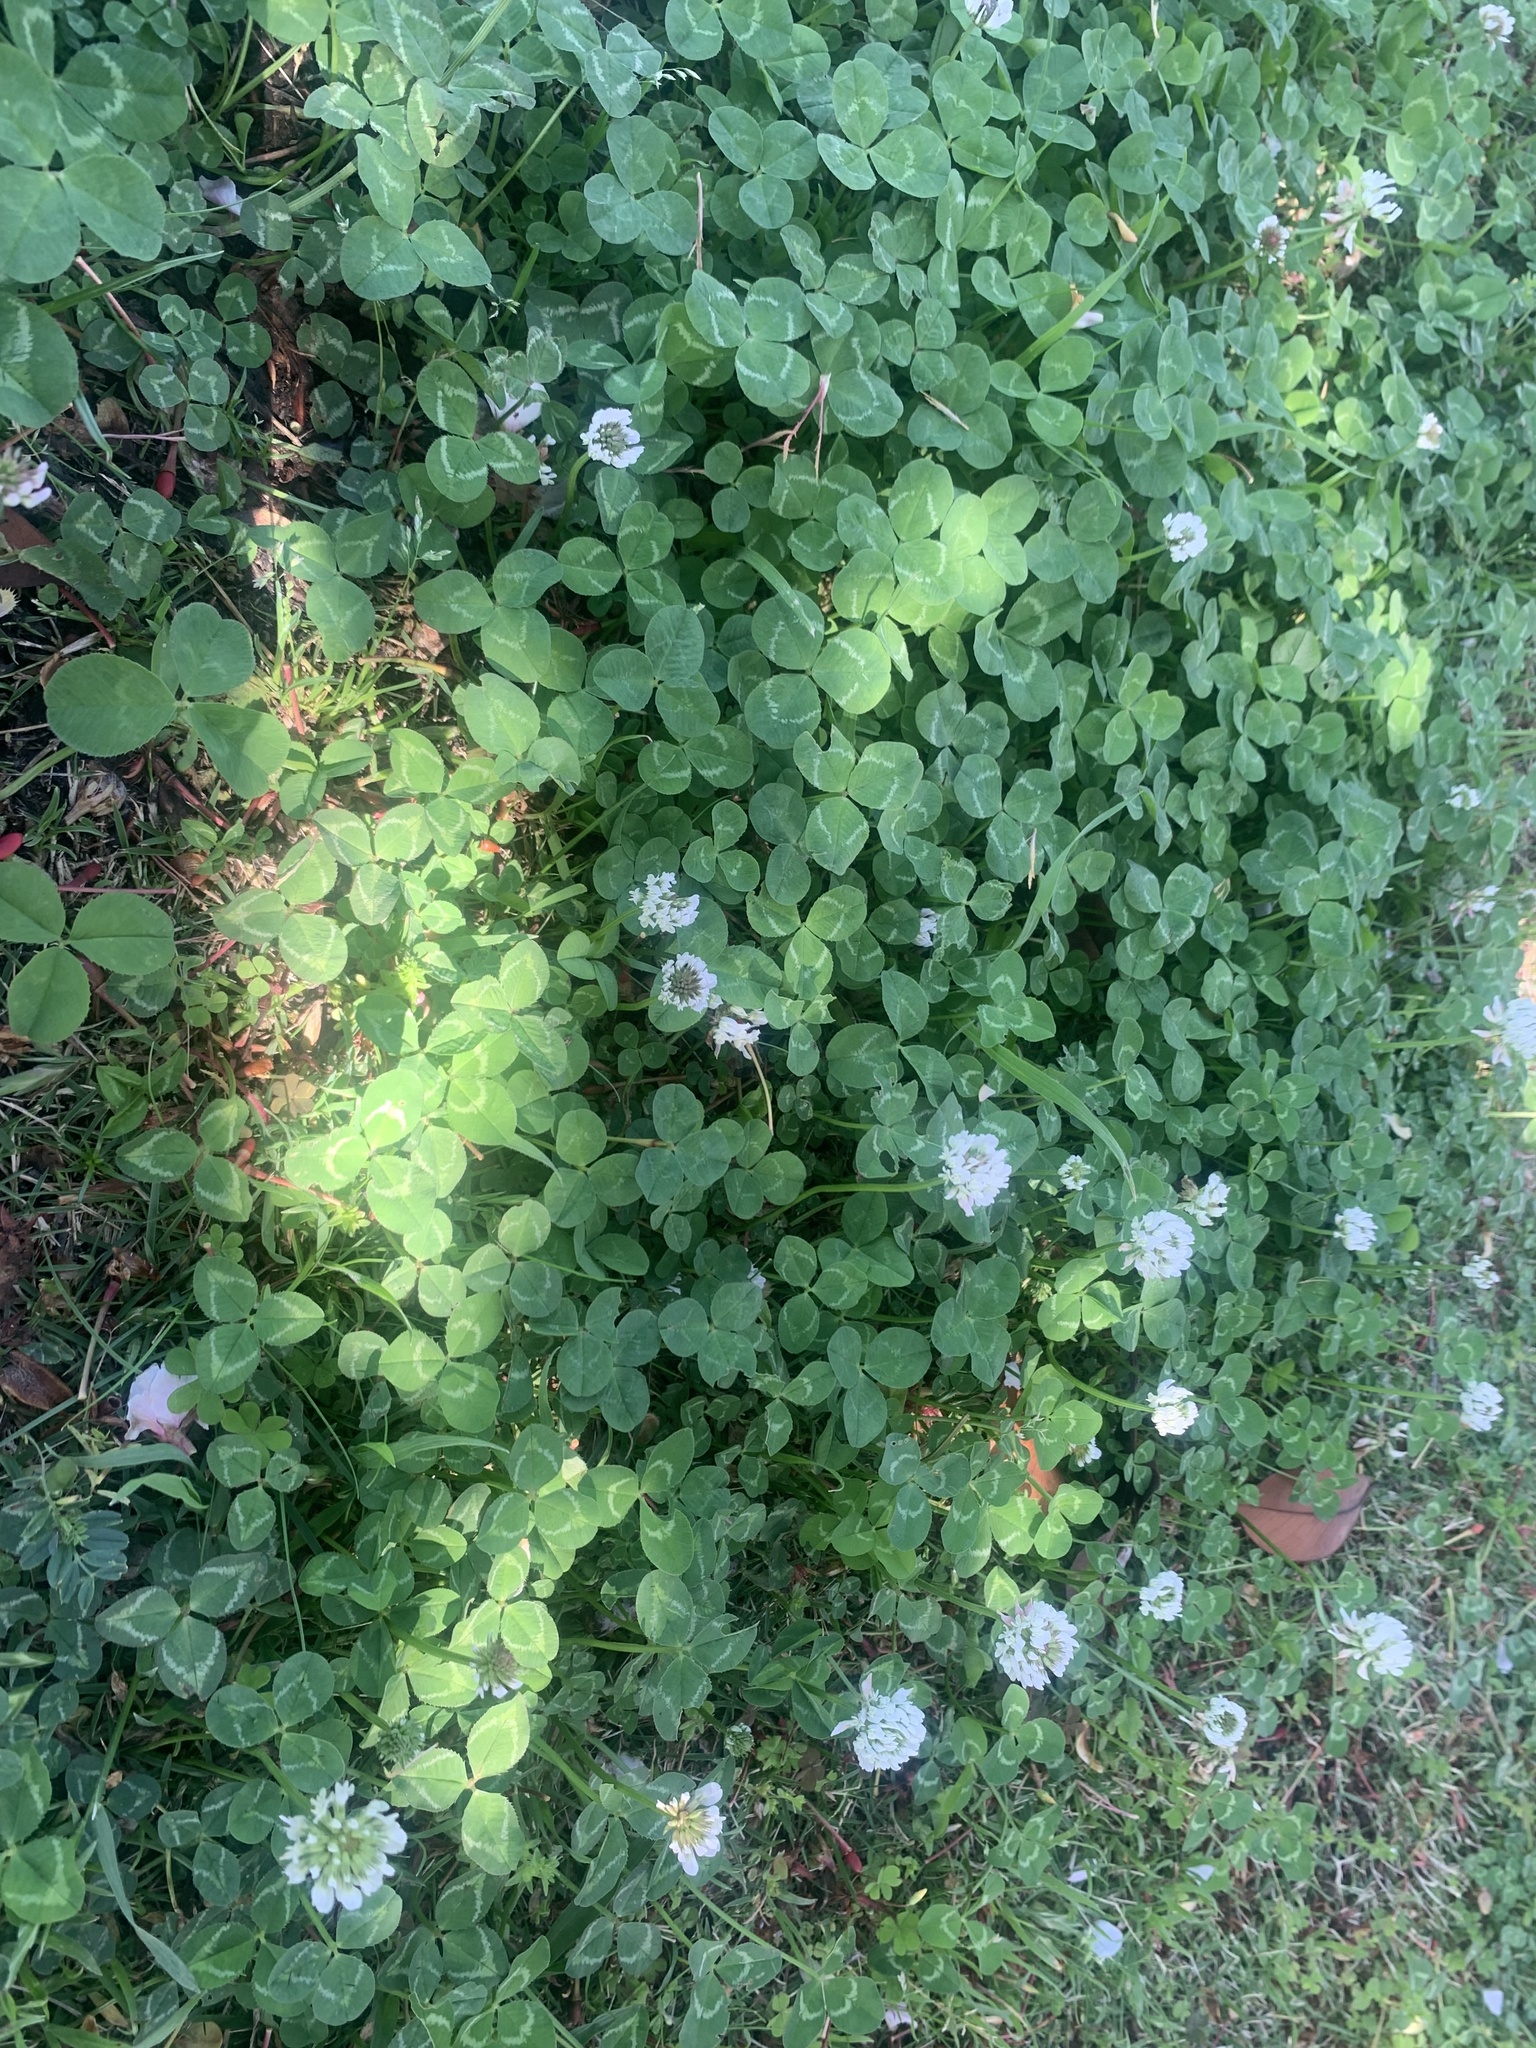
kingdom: Plantae
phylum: Tracheophyta
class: Magnoliopsida
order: Fabales
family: Fabaceae
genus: Trifolium
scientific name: Trifolium repens
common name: White clover
